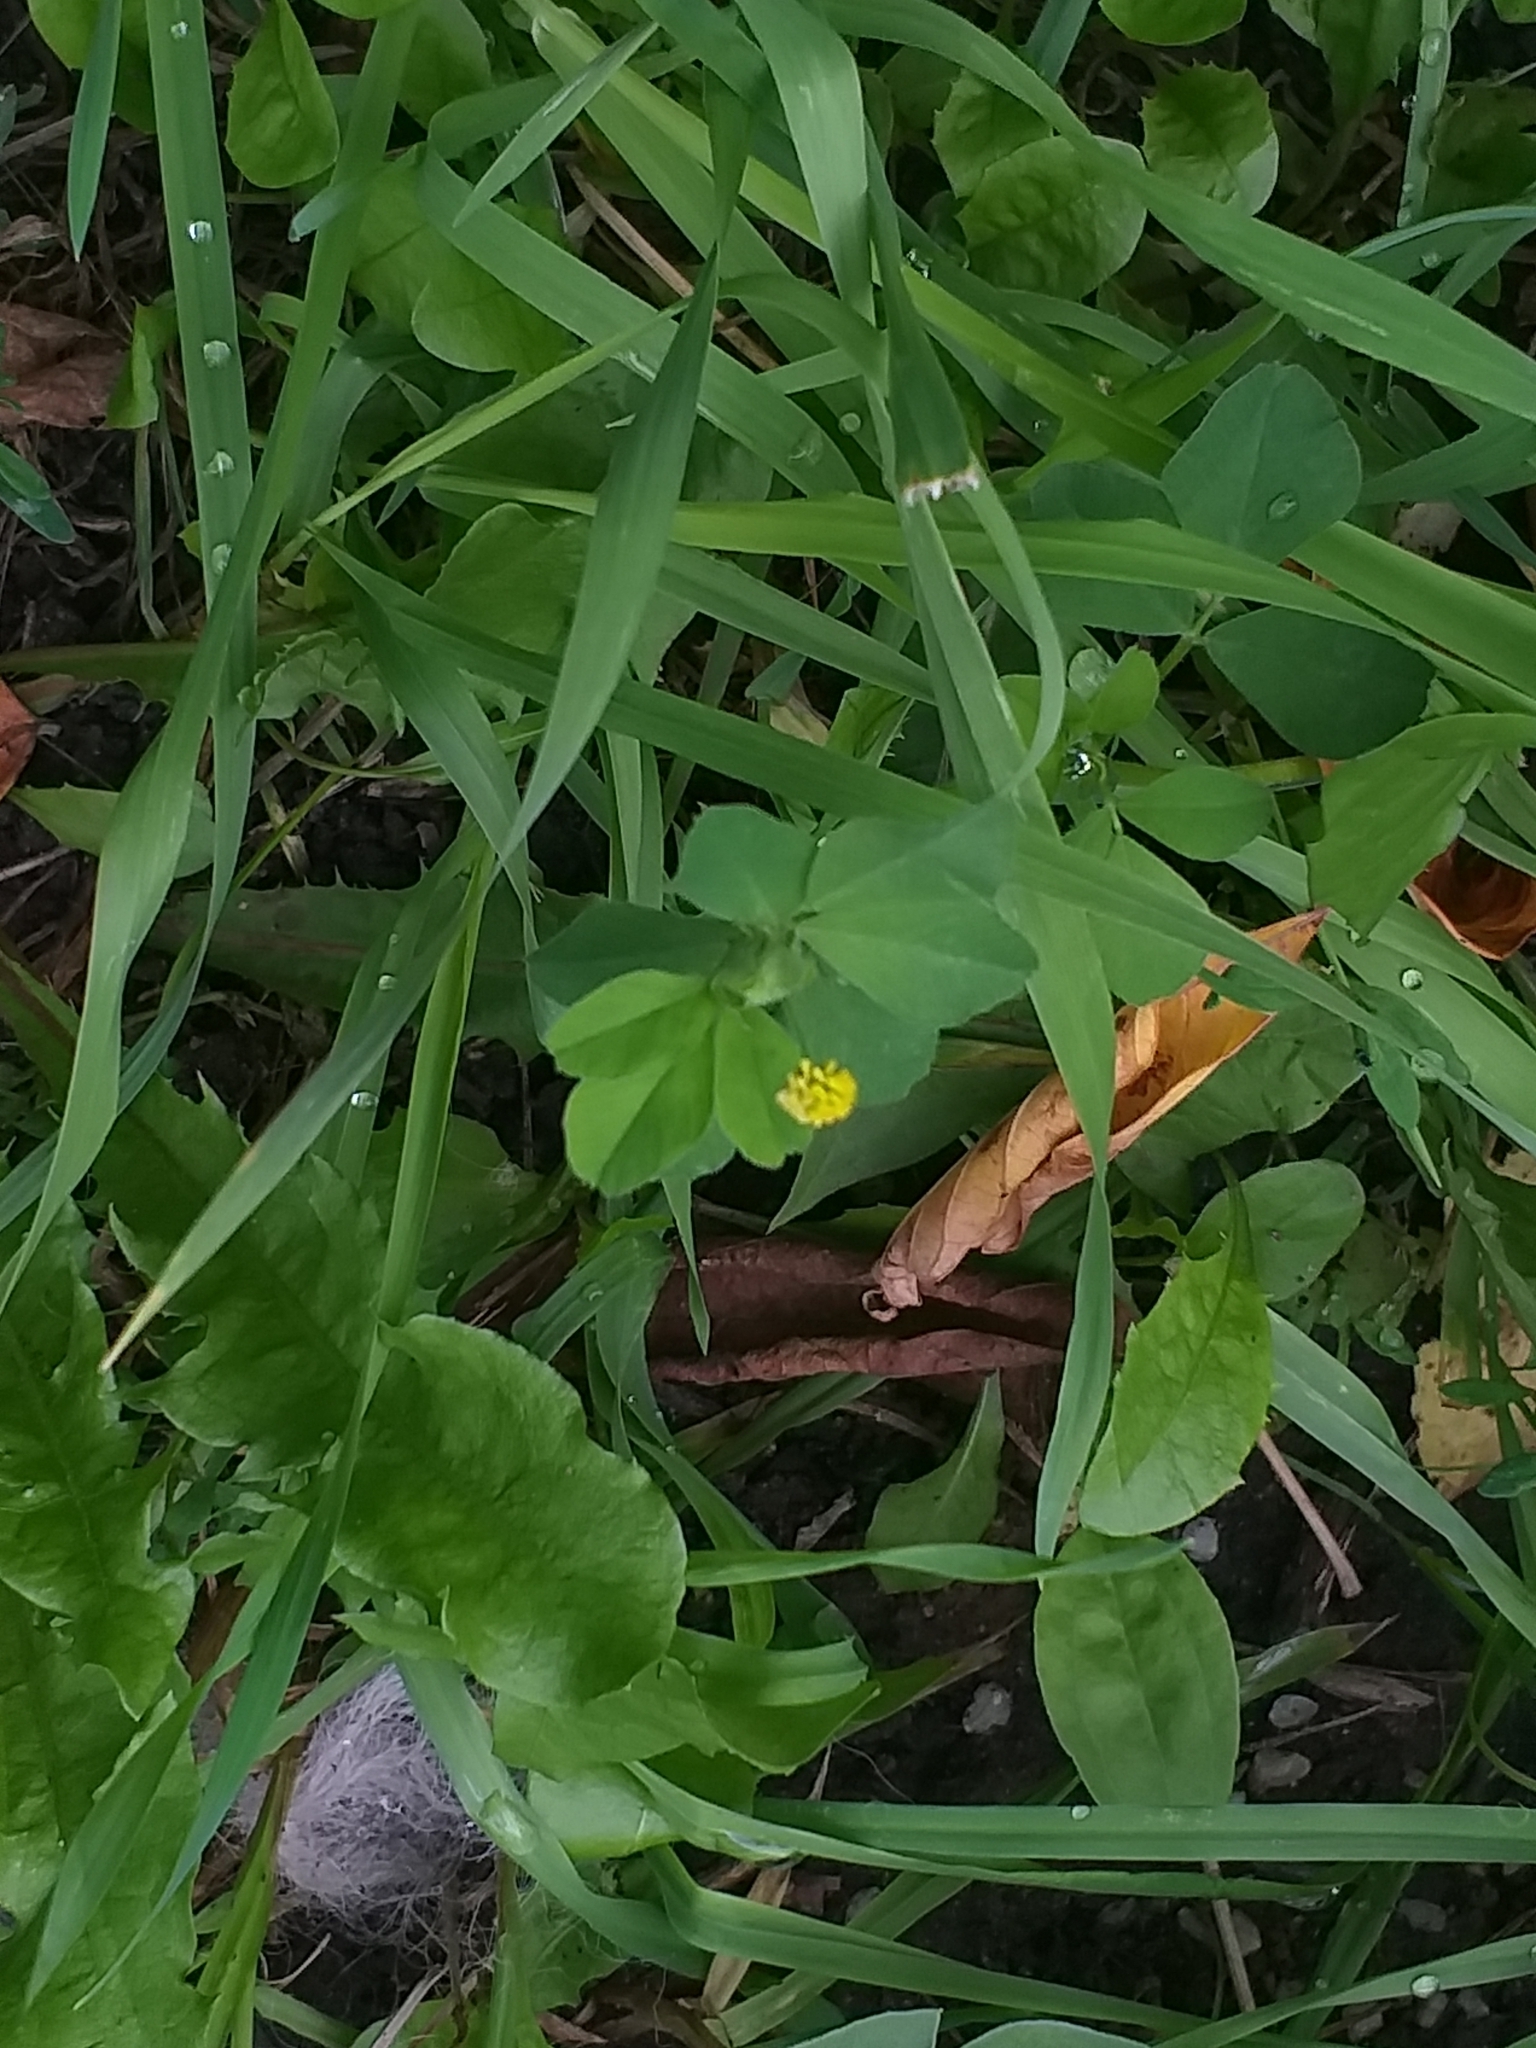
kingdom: Plantae
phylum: Tracheophyta
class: Magnoliopsida
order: Fabales
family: Fabaceae
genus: Medicago
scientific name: Medicago lupulina
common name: Black medick
